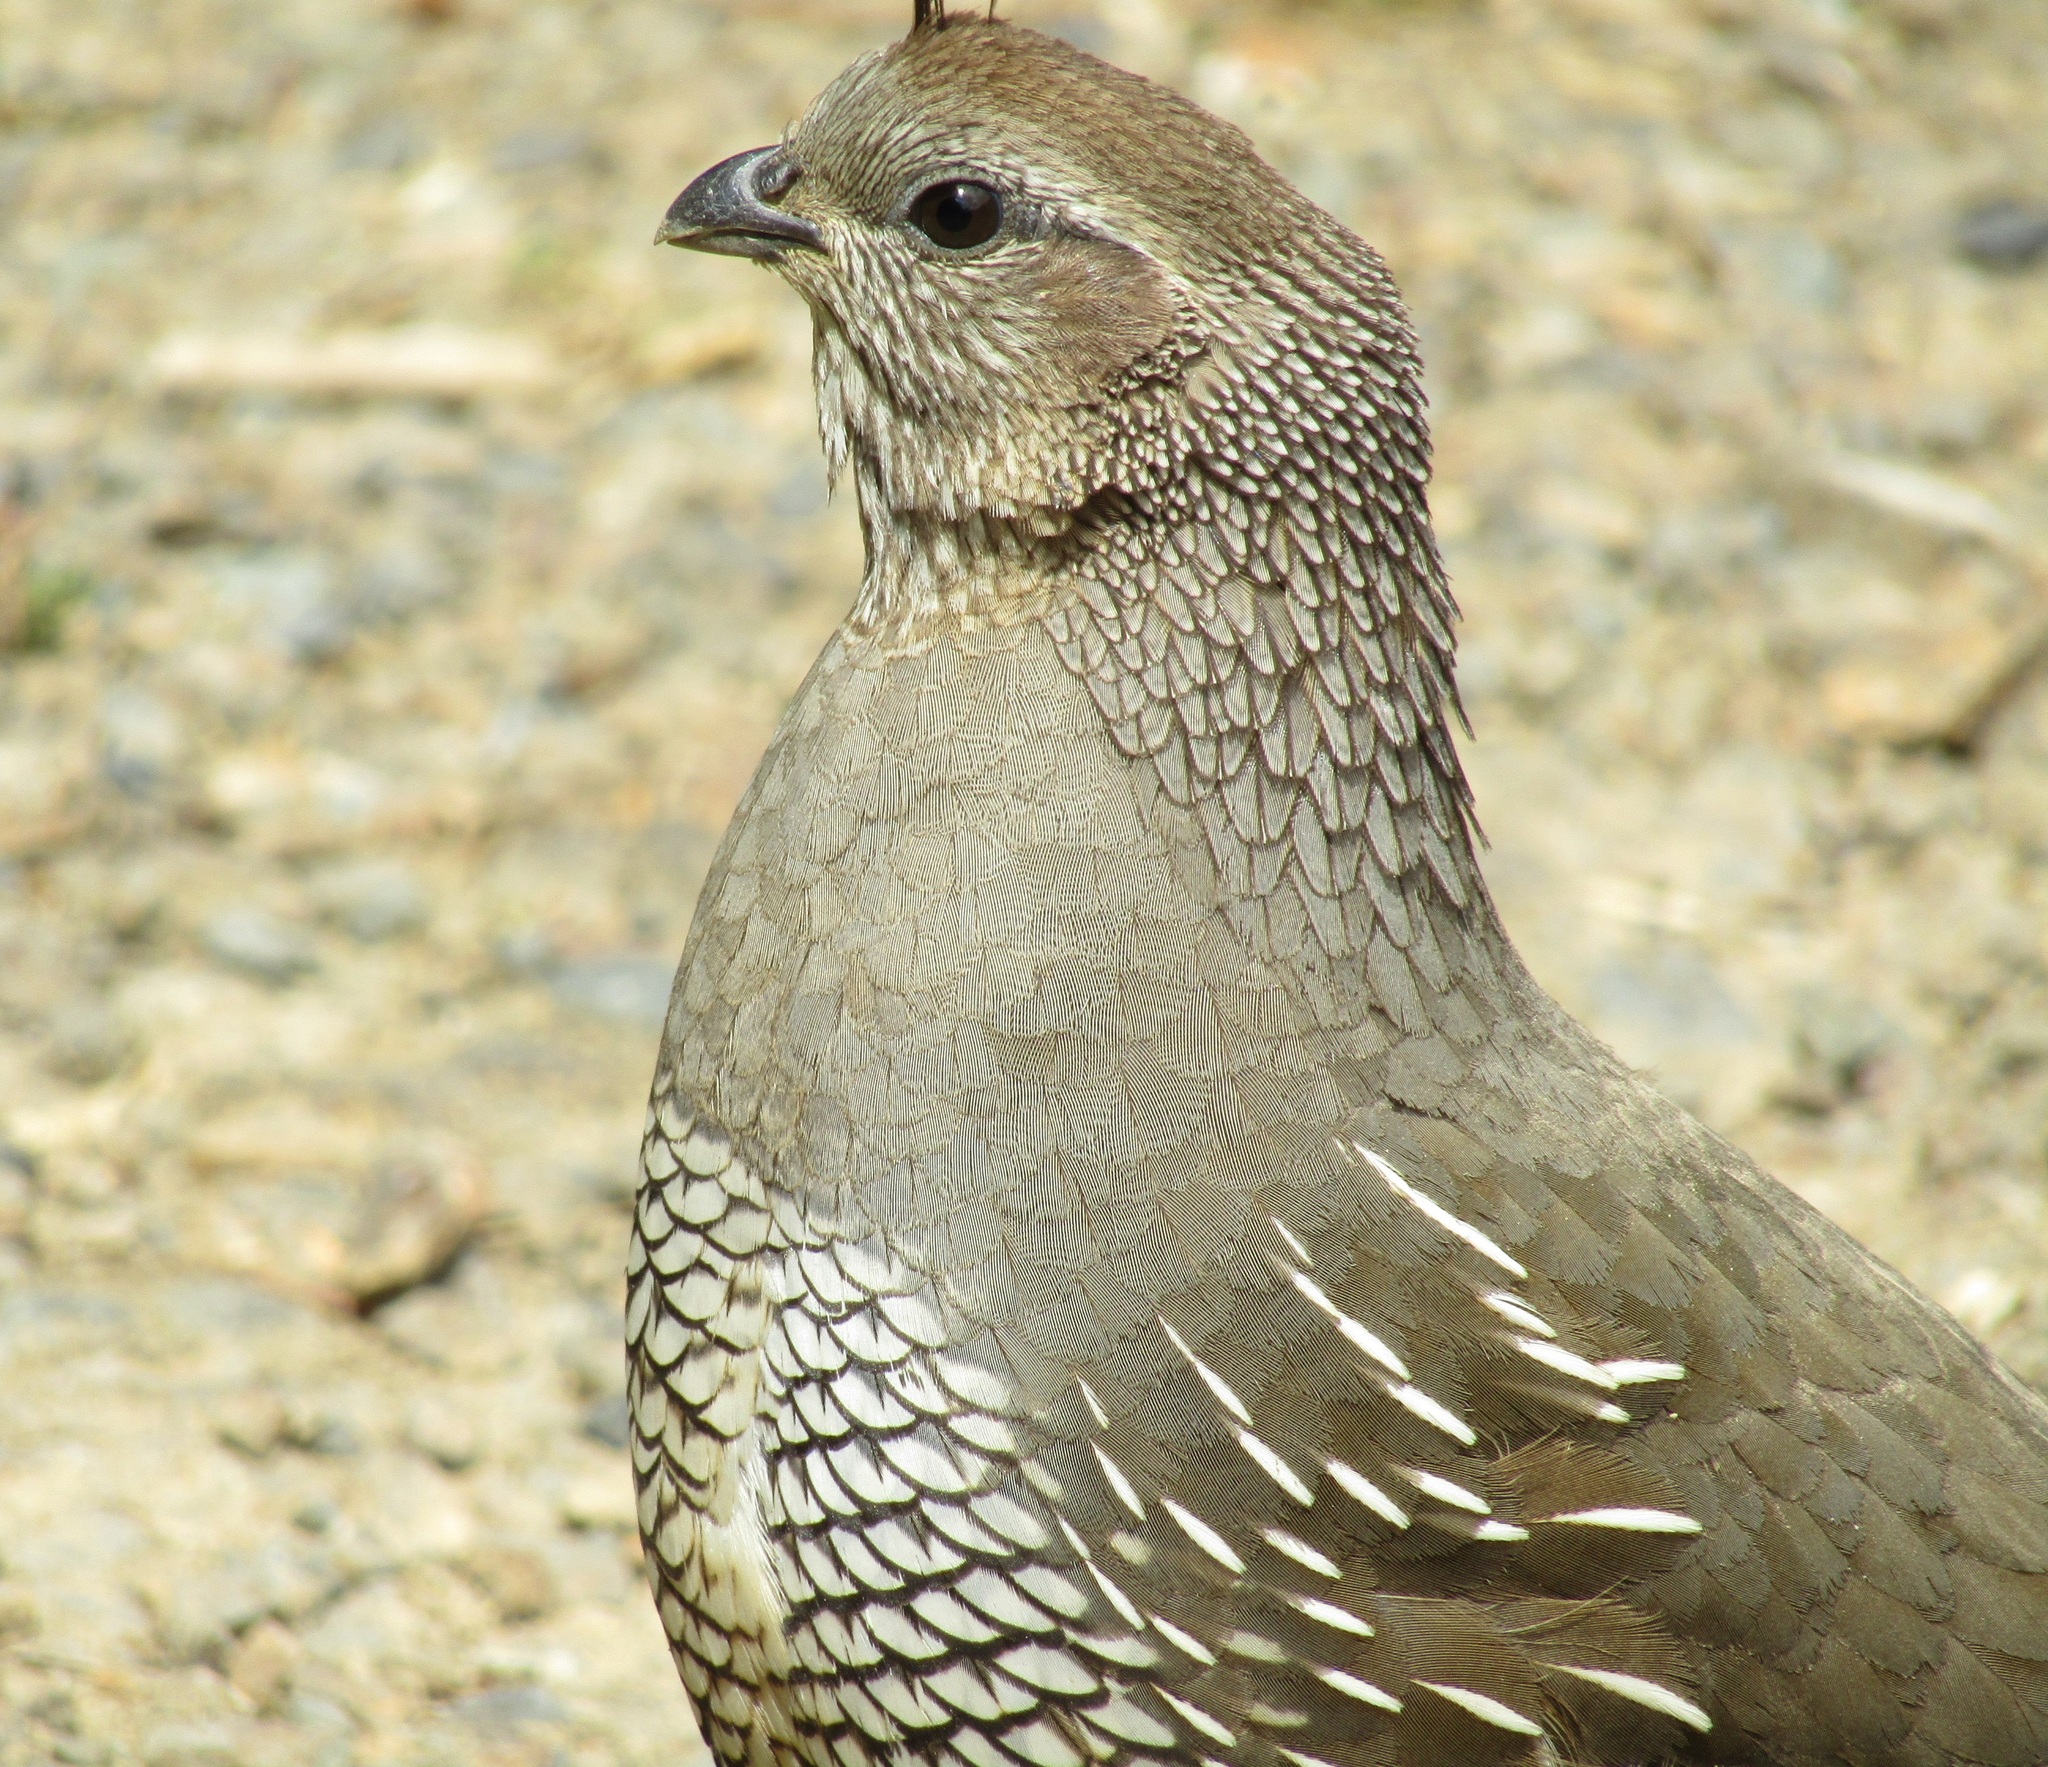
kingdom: Animalia
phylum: Chordata
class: Aves
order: Galliformes
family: Odontophoridae
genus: Callipepla
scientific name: Callipepla californica
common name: California quail
